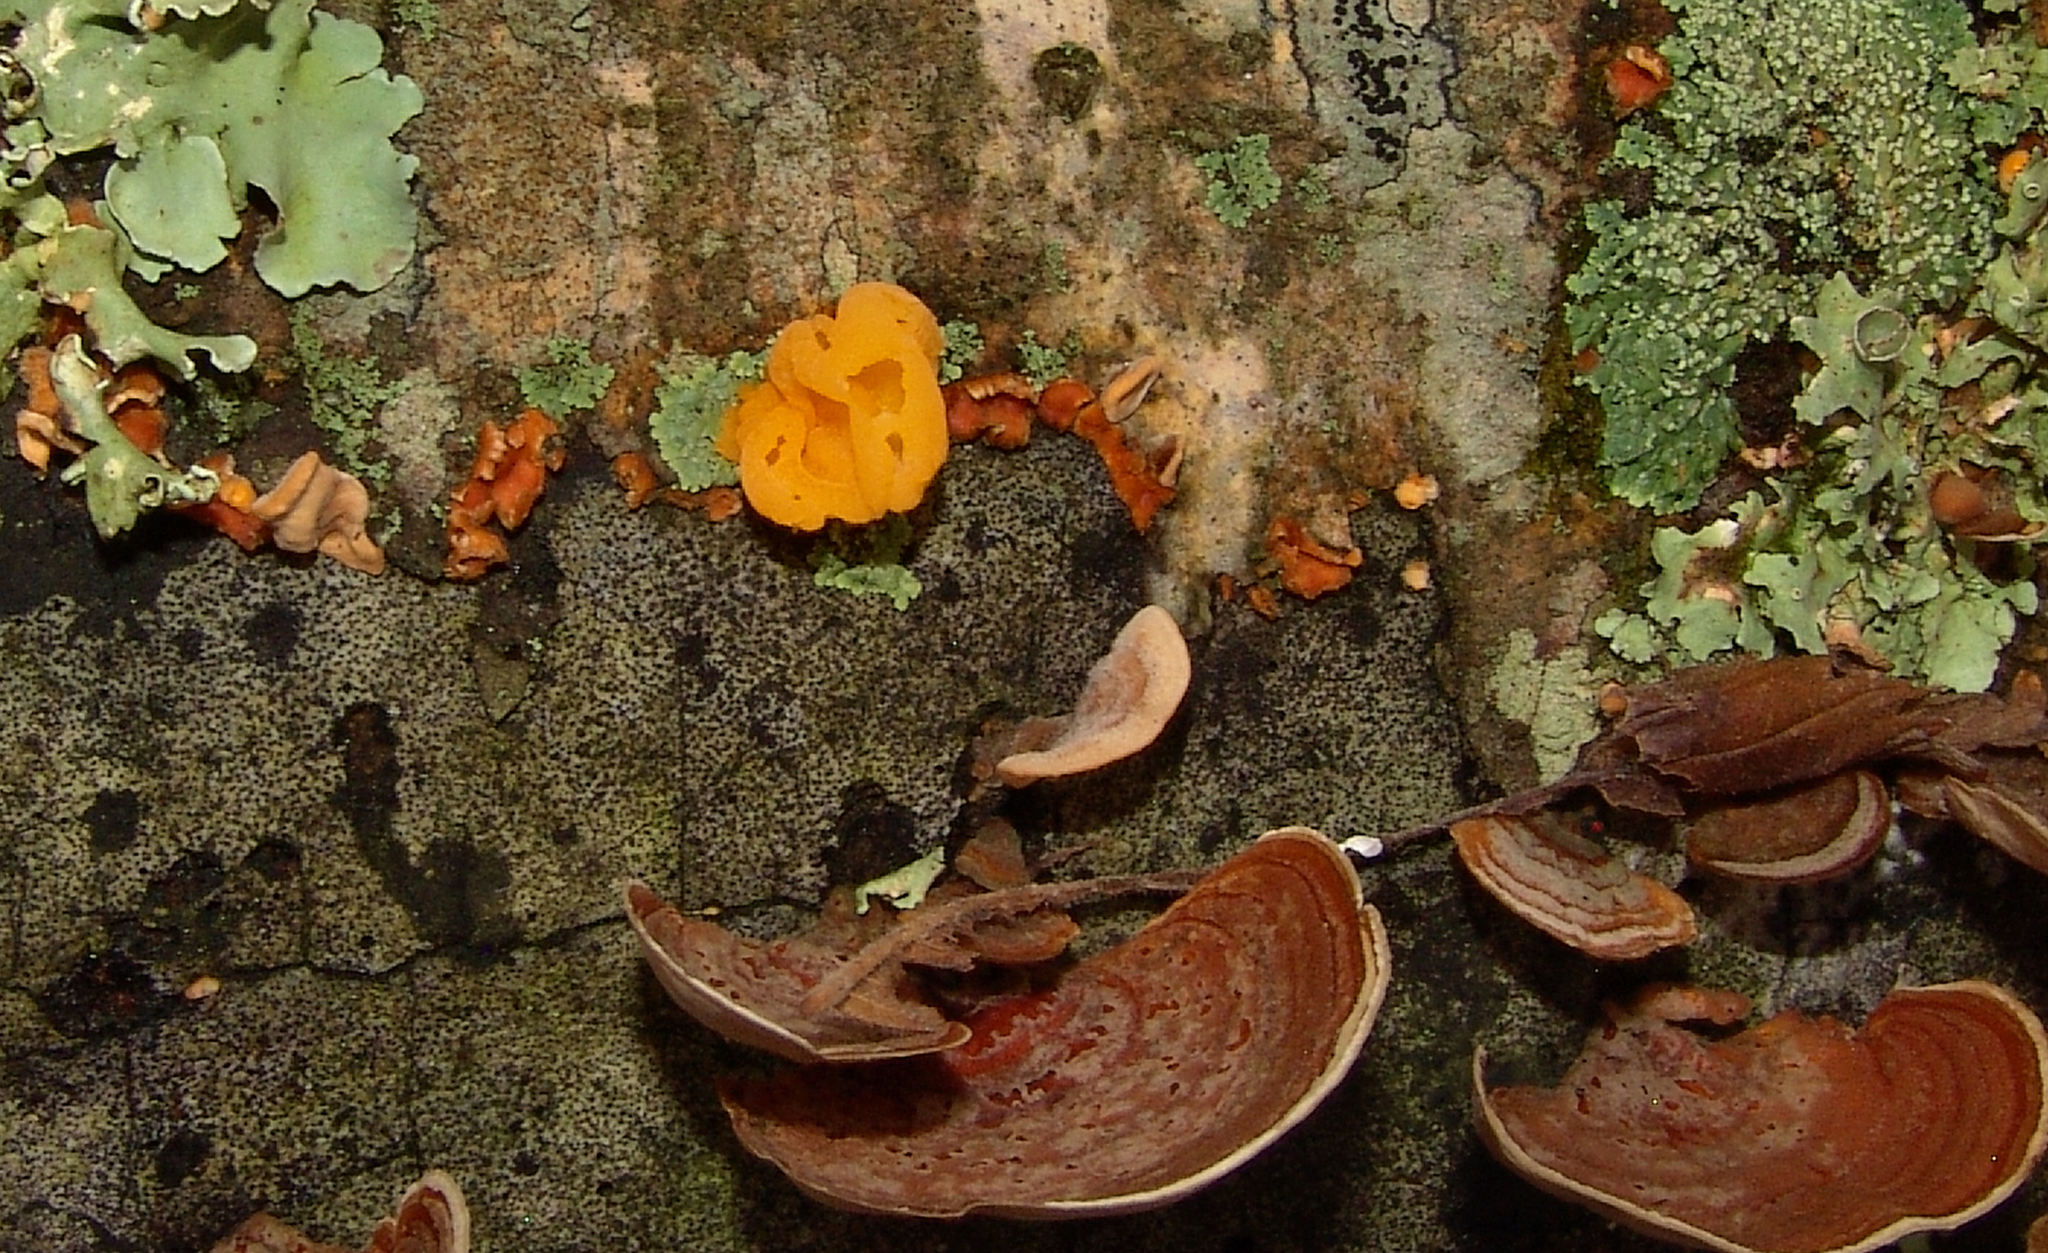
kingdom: Fungi
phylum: Basidiomycota
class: Tremellomycetes
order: Tremellales
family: Naemateliaceae
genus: Naematelia
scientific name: Naematelia aurantia
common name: Golden ear
